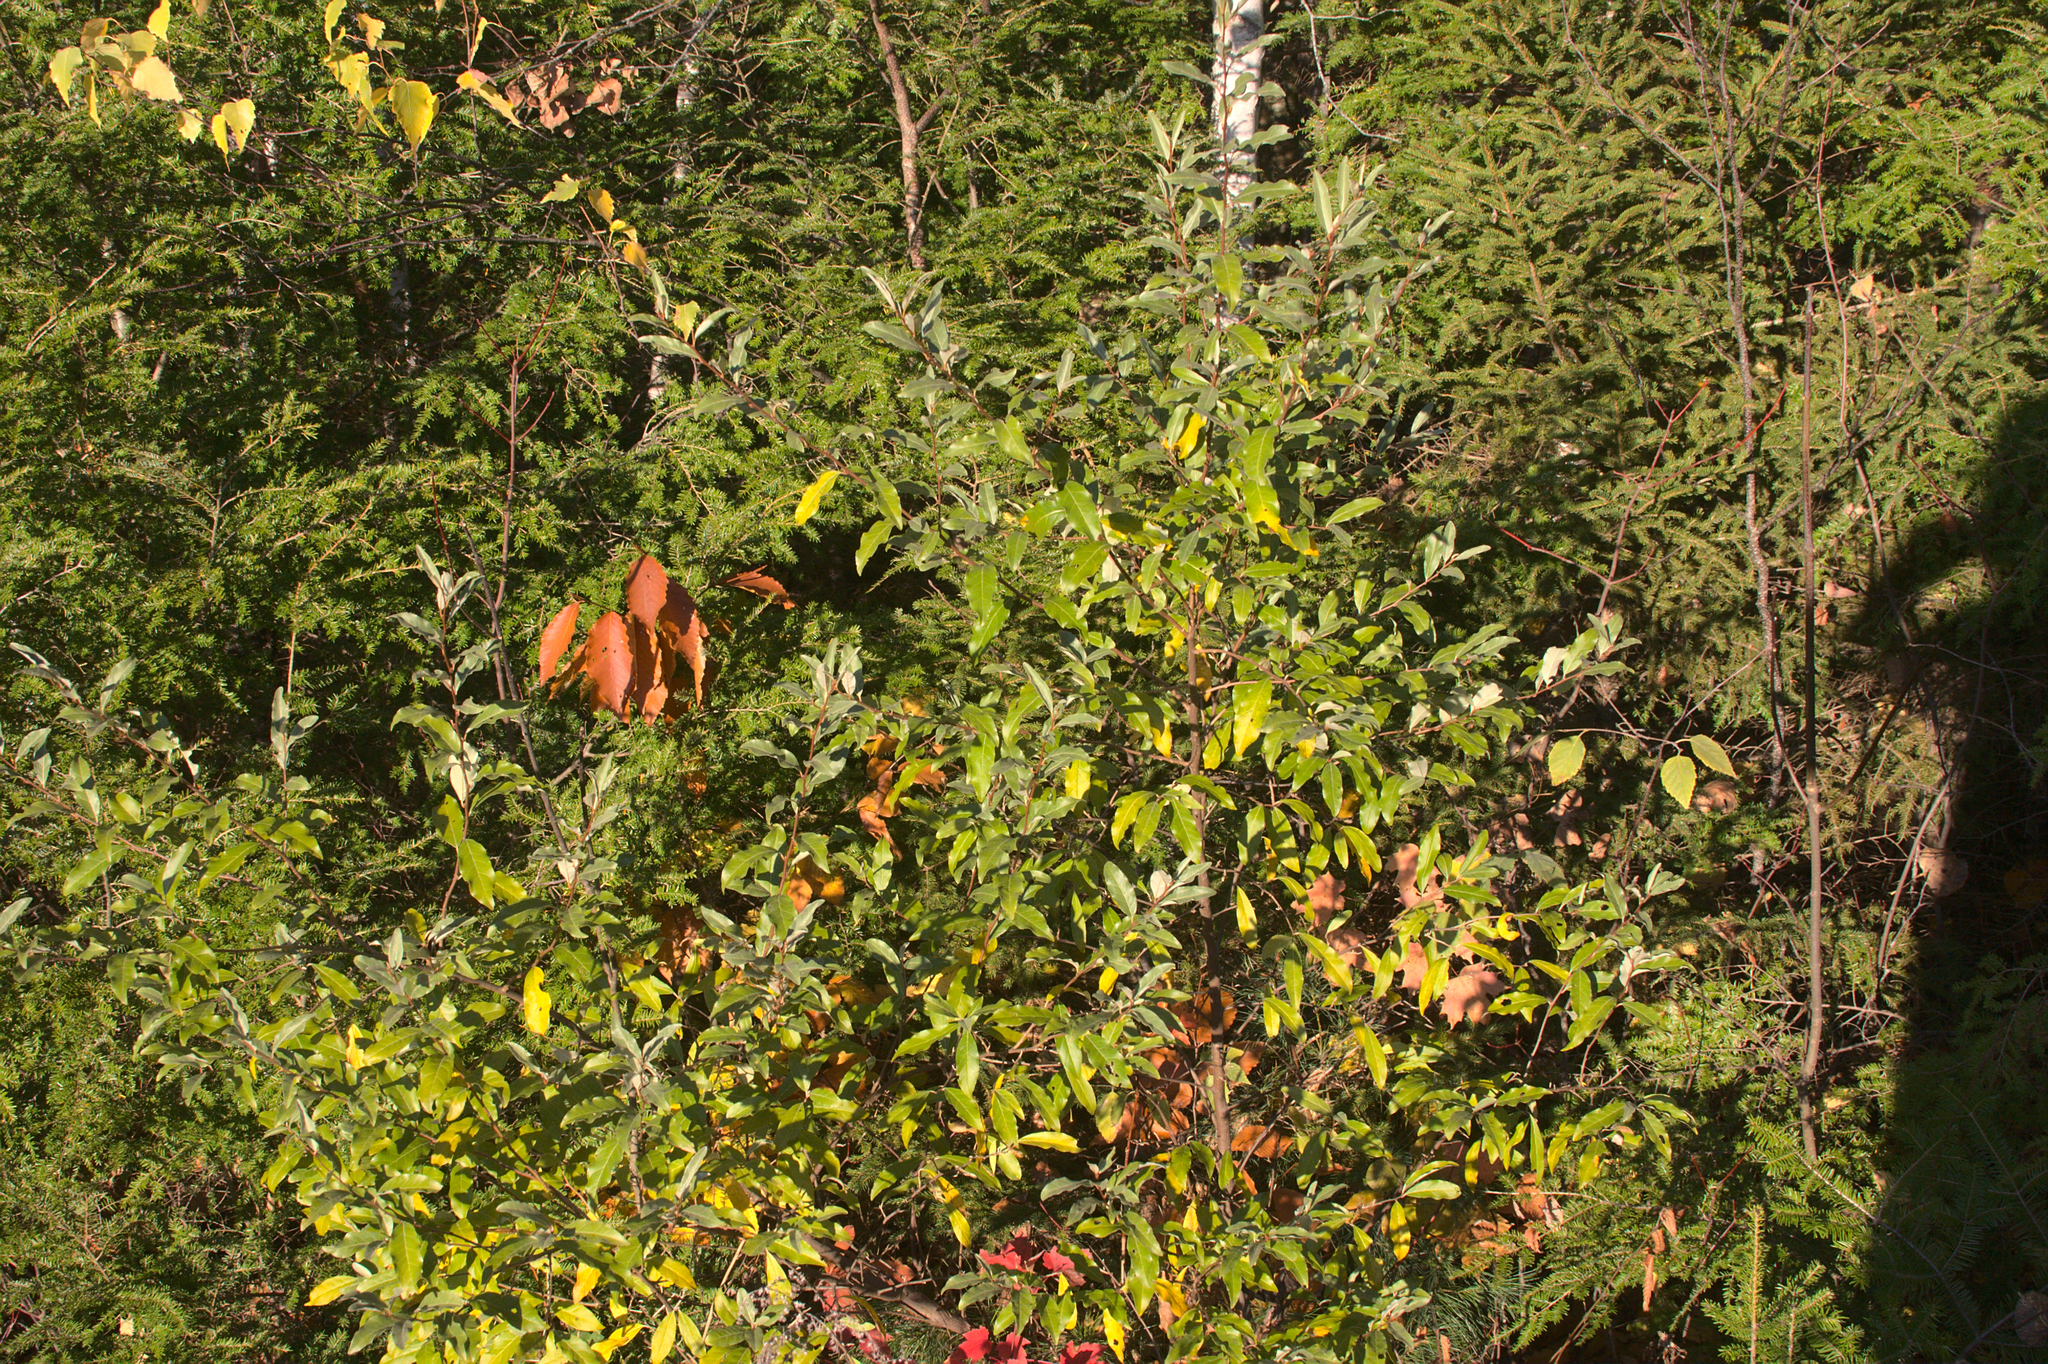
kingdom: Plantae
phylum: Tracheophyta
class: Magnoliopsida
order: Rosales
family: Elaeagnaceae
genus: Elaeagnus
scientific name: Elaeagnus umbellata
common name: Autumn olive
